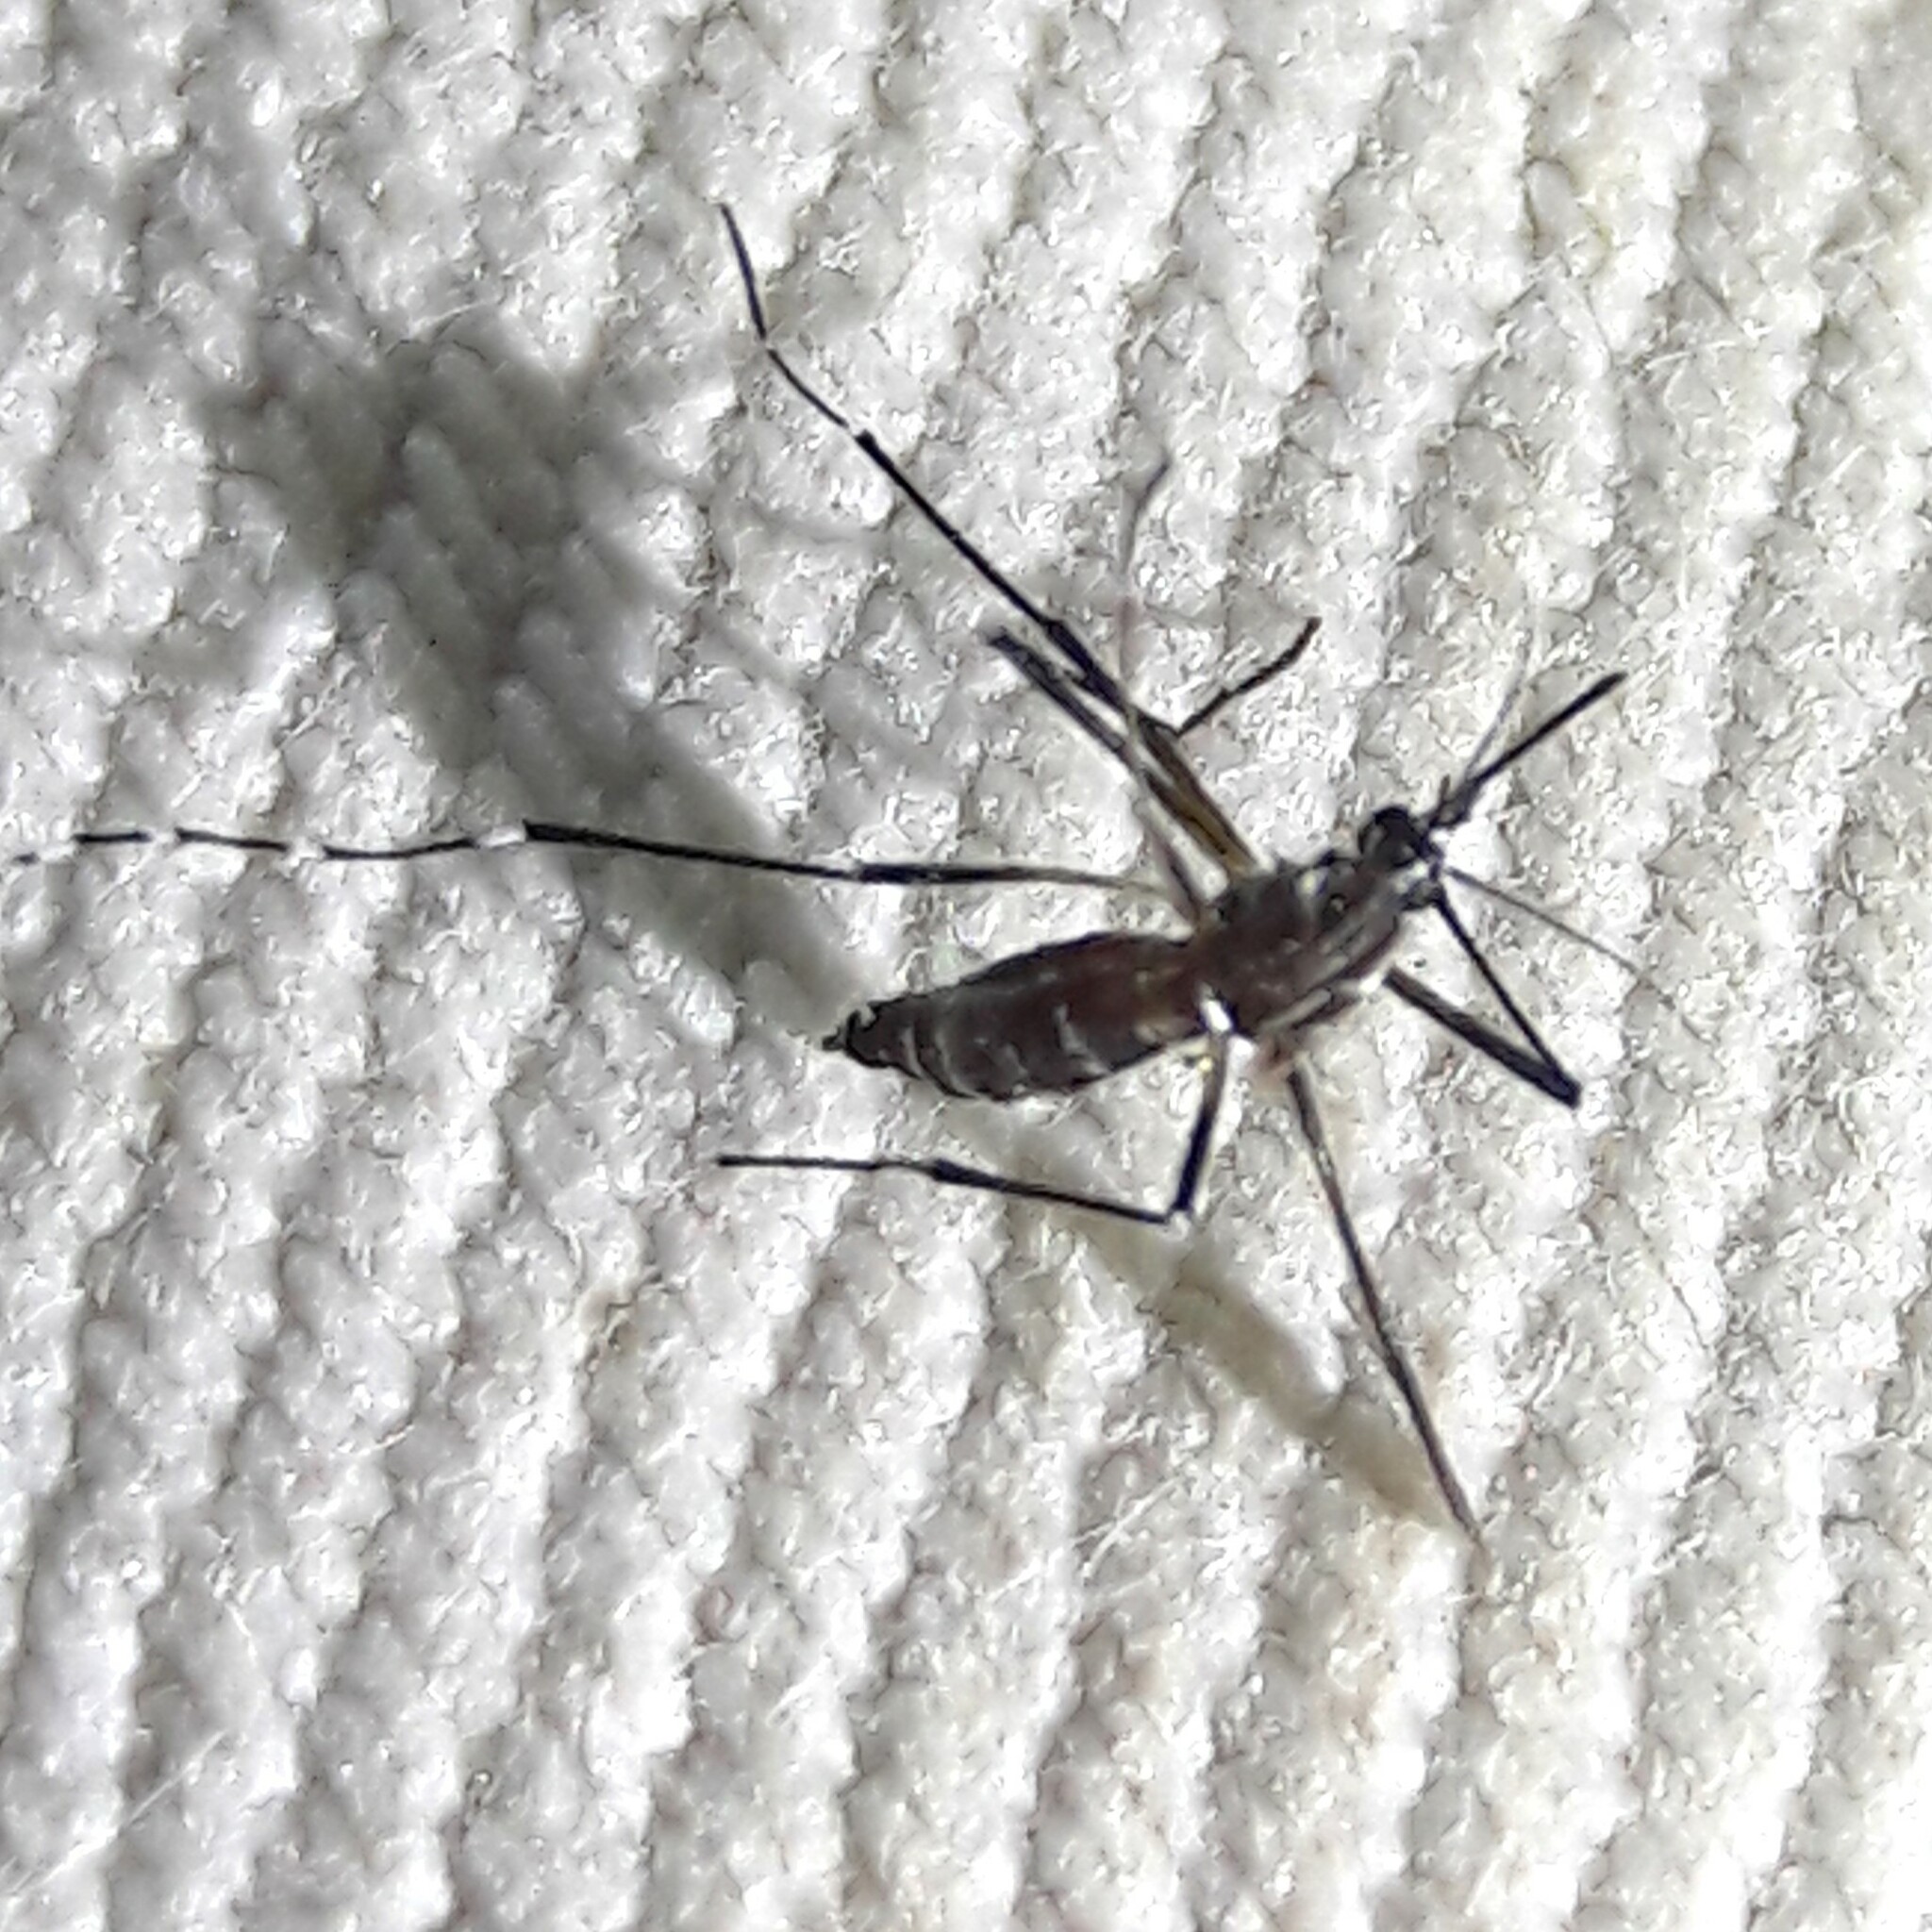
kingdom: Animalia
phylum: Arthropoda
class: Insecta
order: Diptera
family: Culicidae
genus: Aedes
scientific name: Aedes aegypti
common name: Yellow fever mosquito
